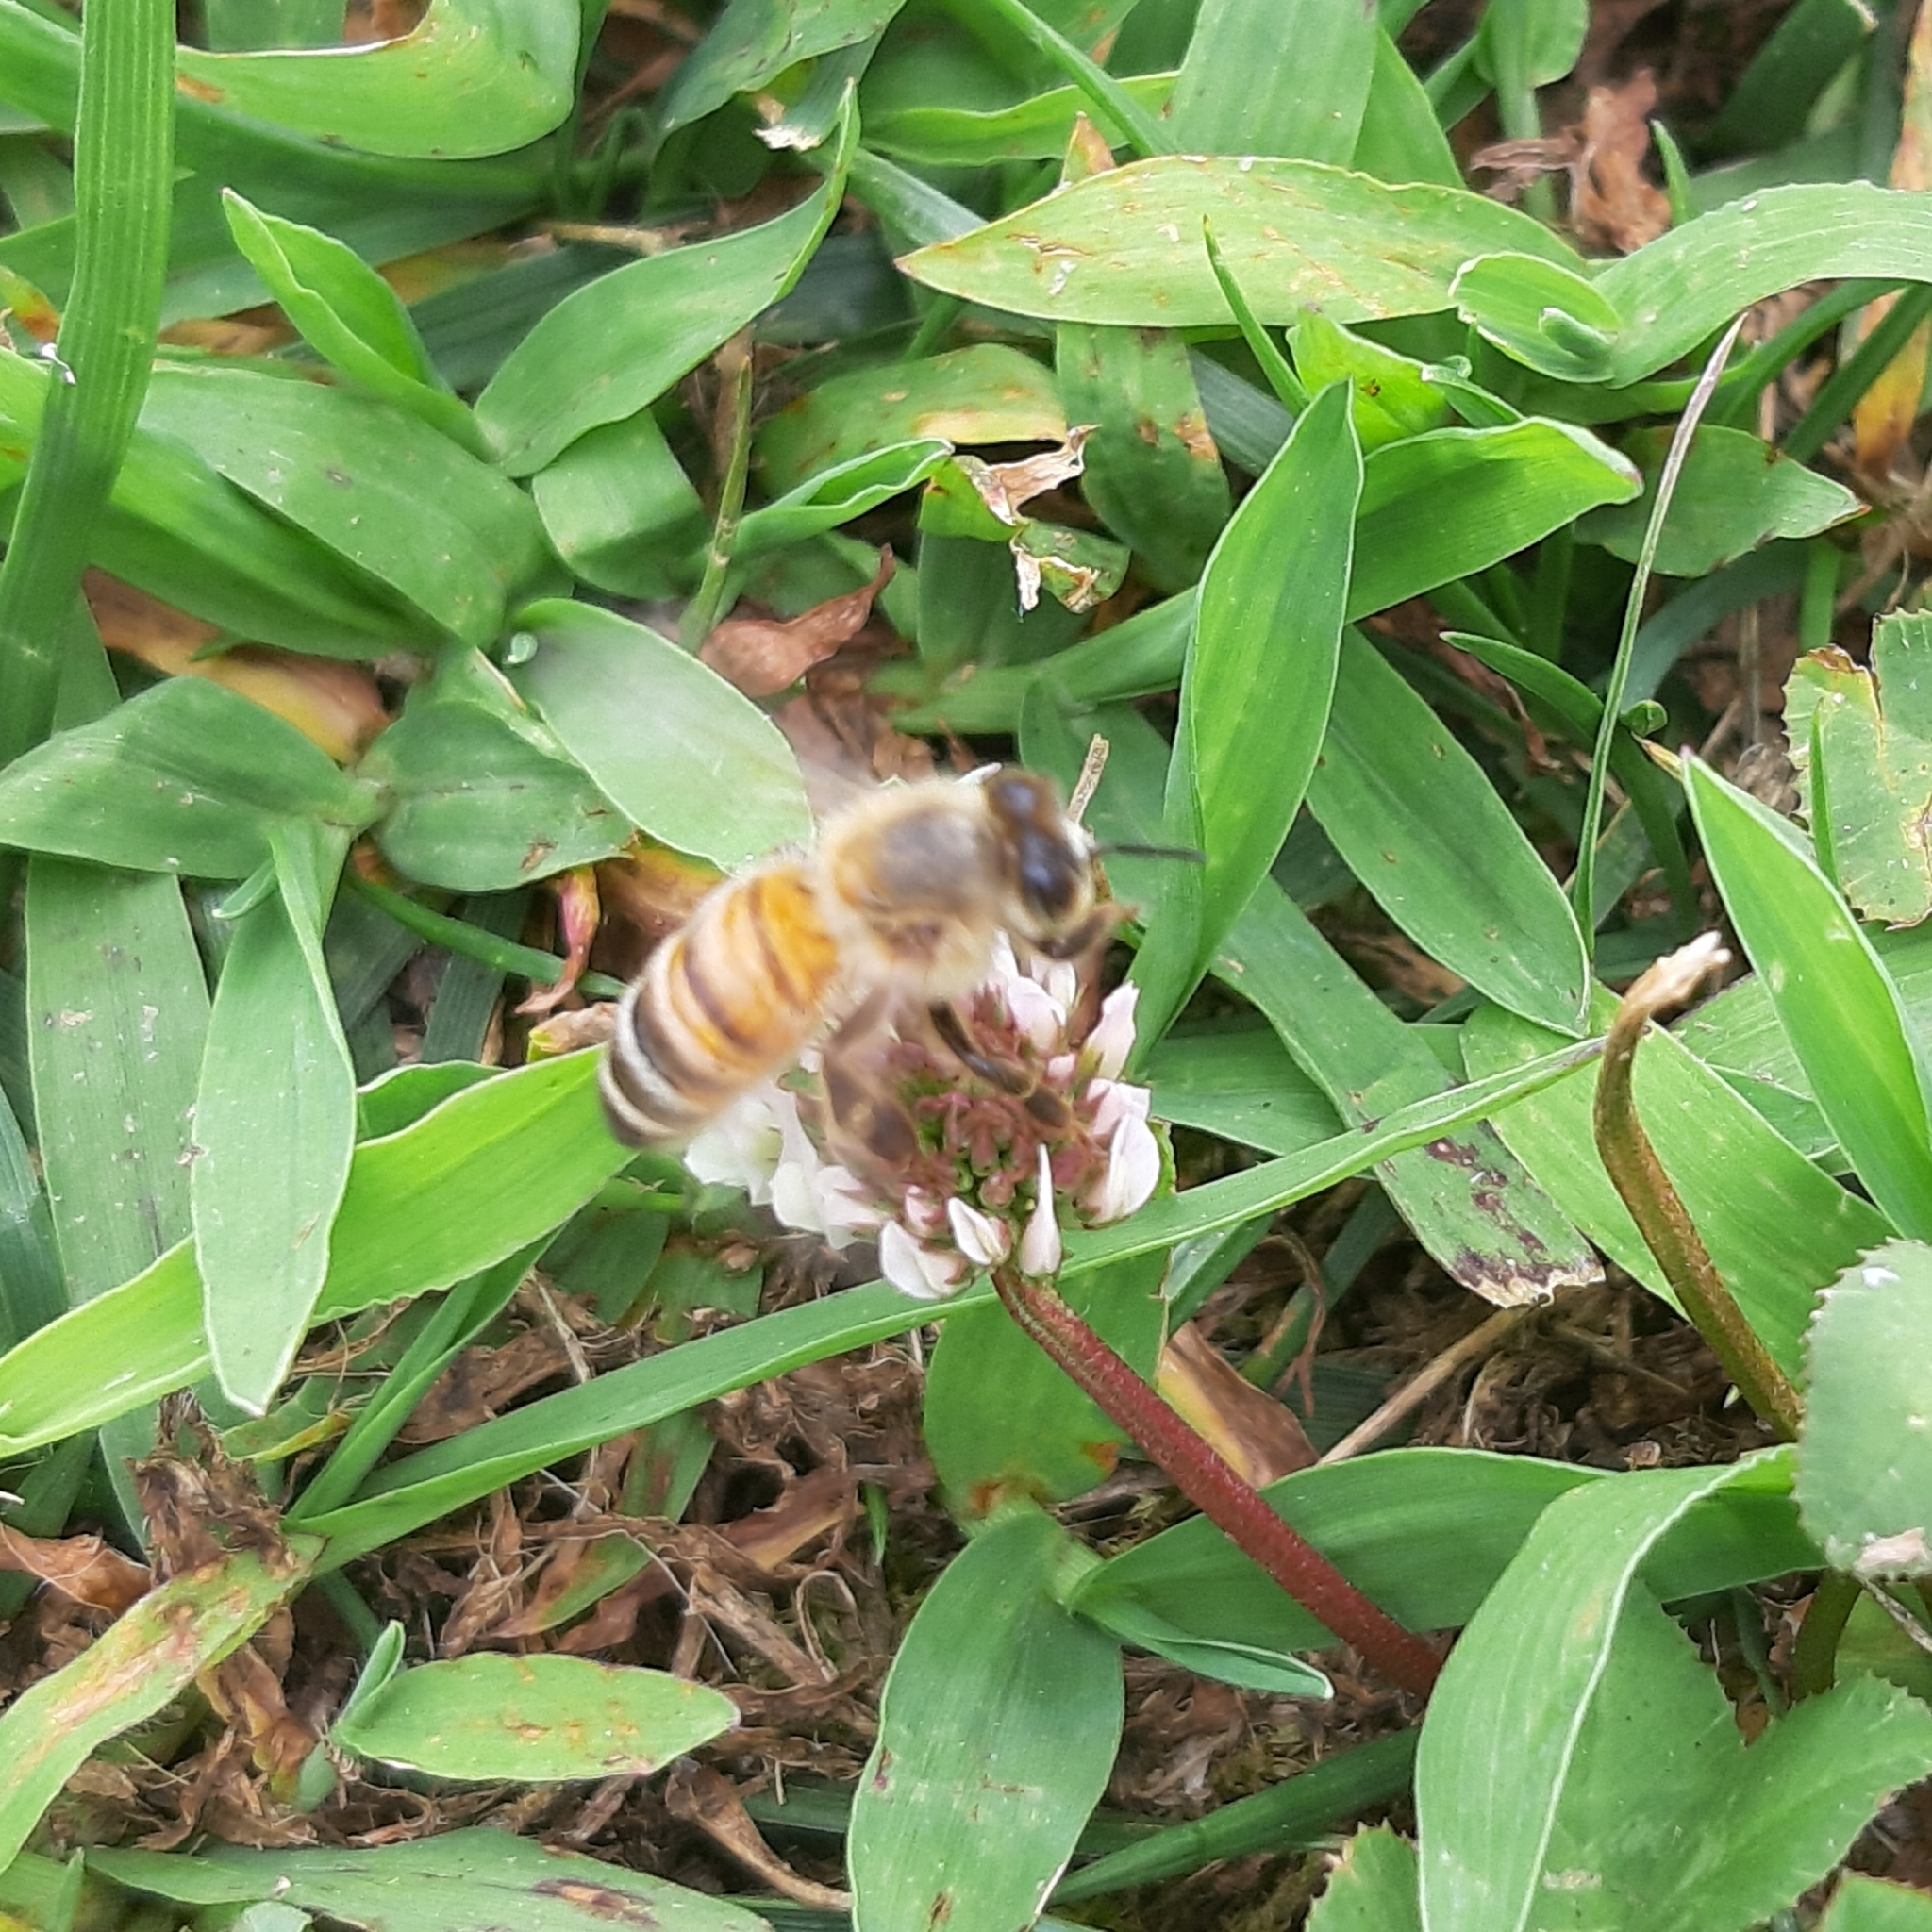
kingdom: Animalia
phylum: Arthropoda
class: Insecta
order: Hymenoptera
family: Apidae
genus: Apis
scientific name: Apis mellifera
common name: Honey bee
